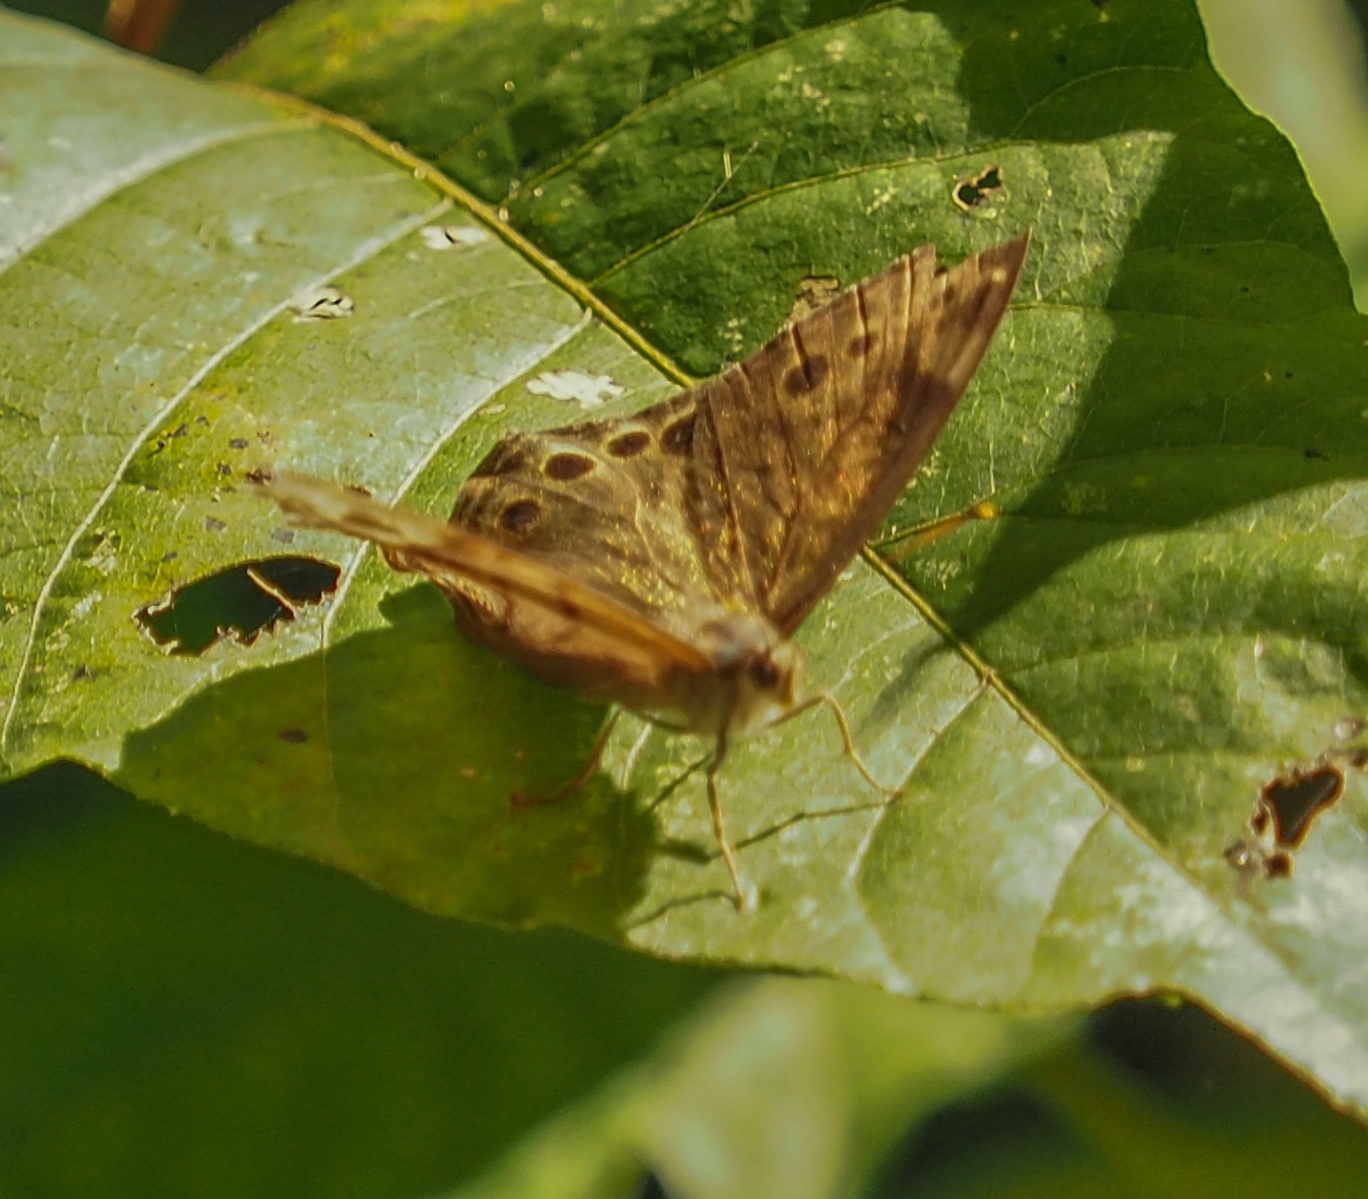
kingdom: Animalia
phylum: Arthropoda
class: Insecta
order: Lepidoptera
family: Nymphalidae
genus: Lethe
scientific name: Lethe anthedon
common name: Northern pearly-eye
